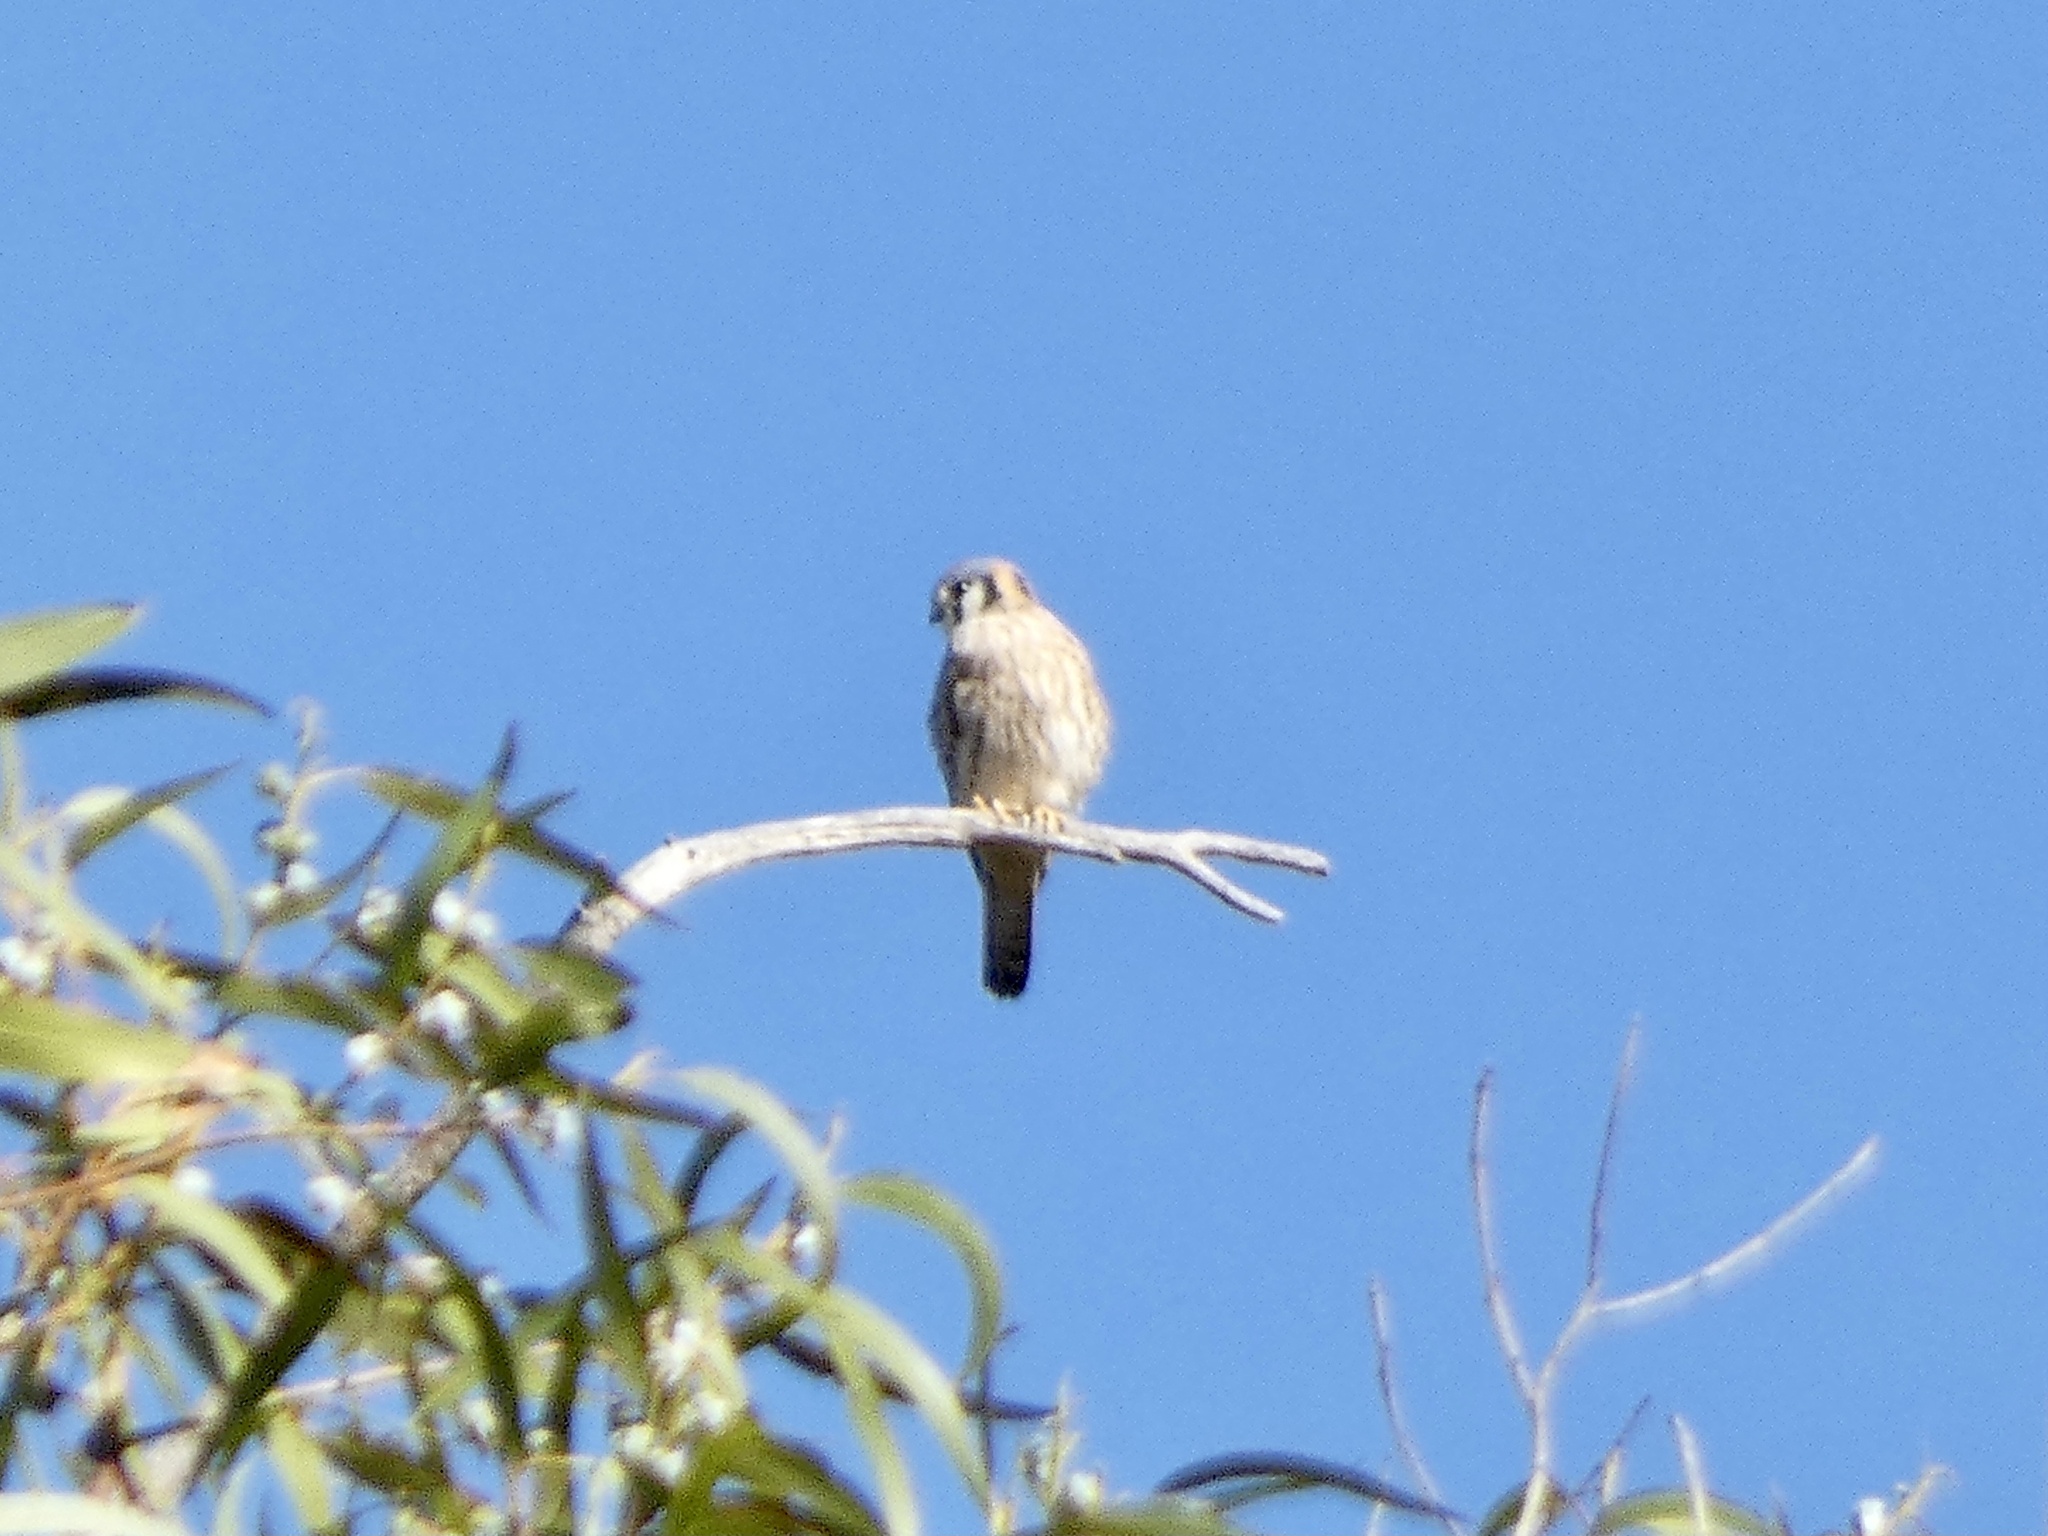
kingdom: Animalia
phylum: Chordata
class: Aves
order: Falconiformes
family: Falconidae
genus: Falco
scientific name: Falco sparverius
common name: American kestrel
